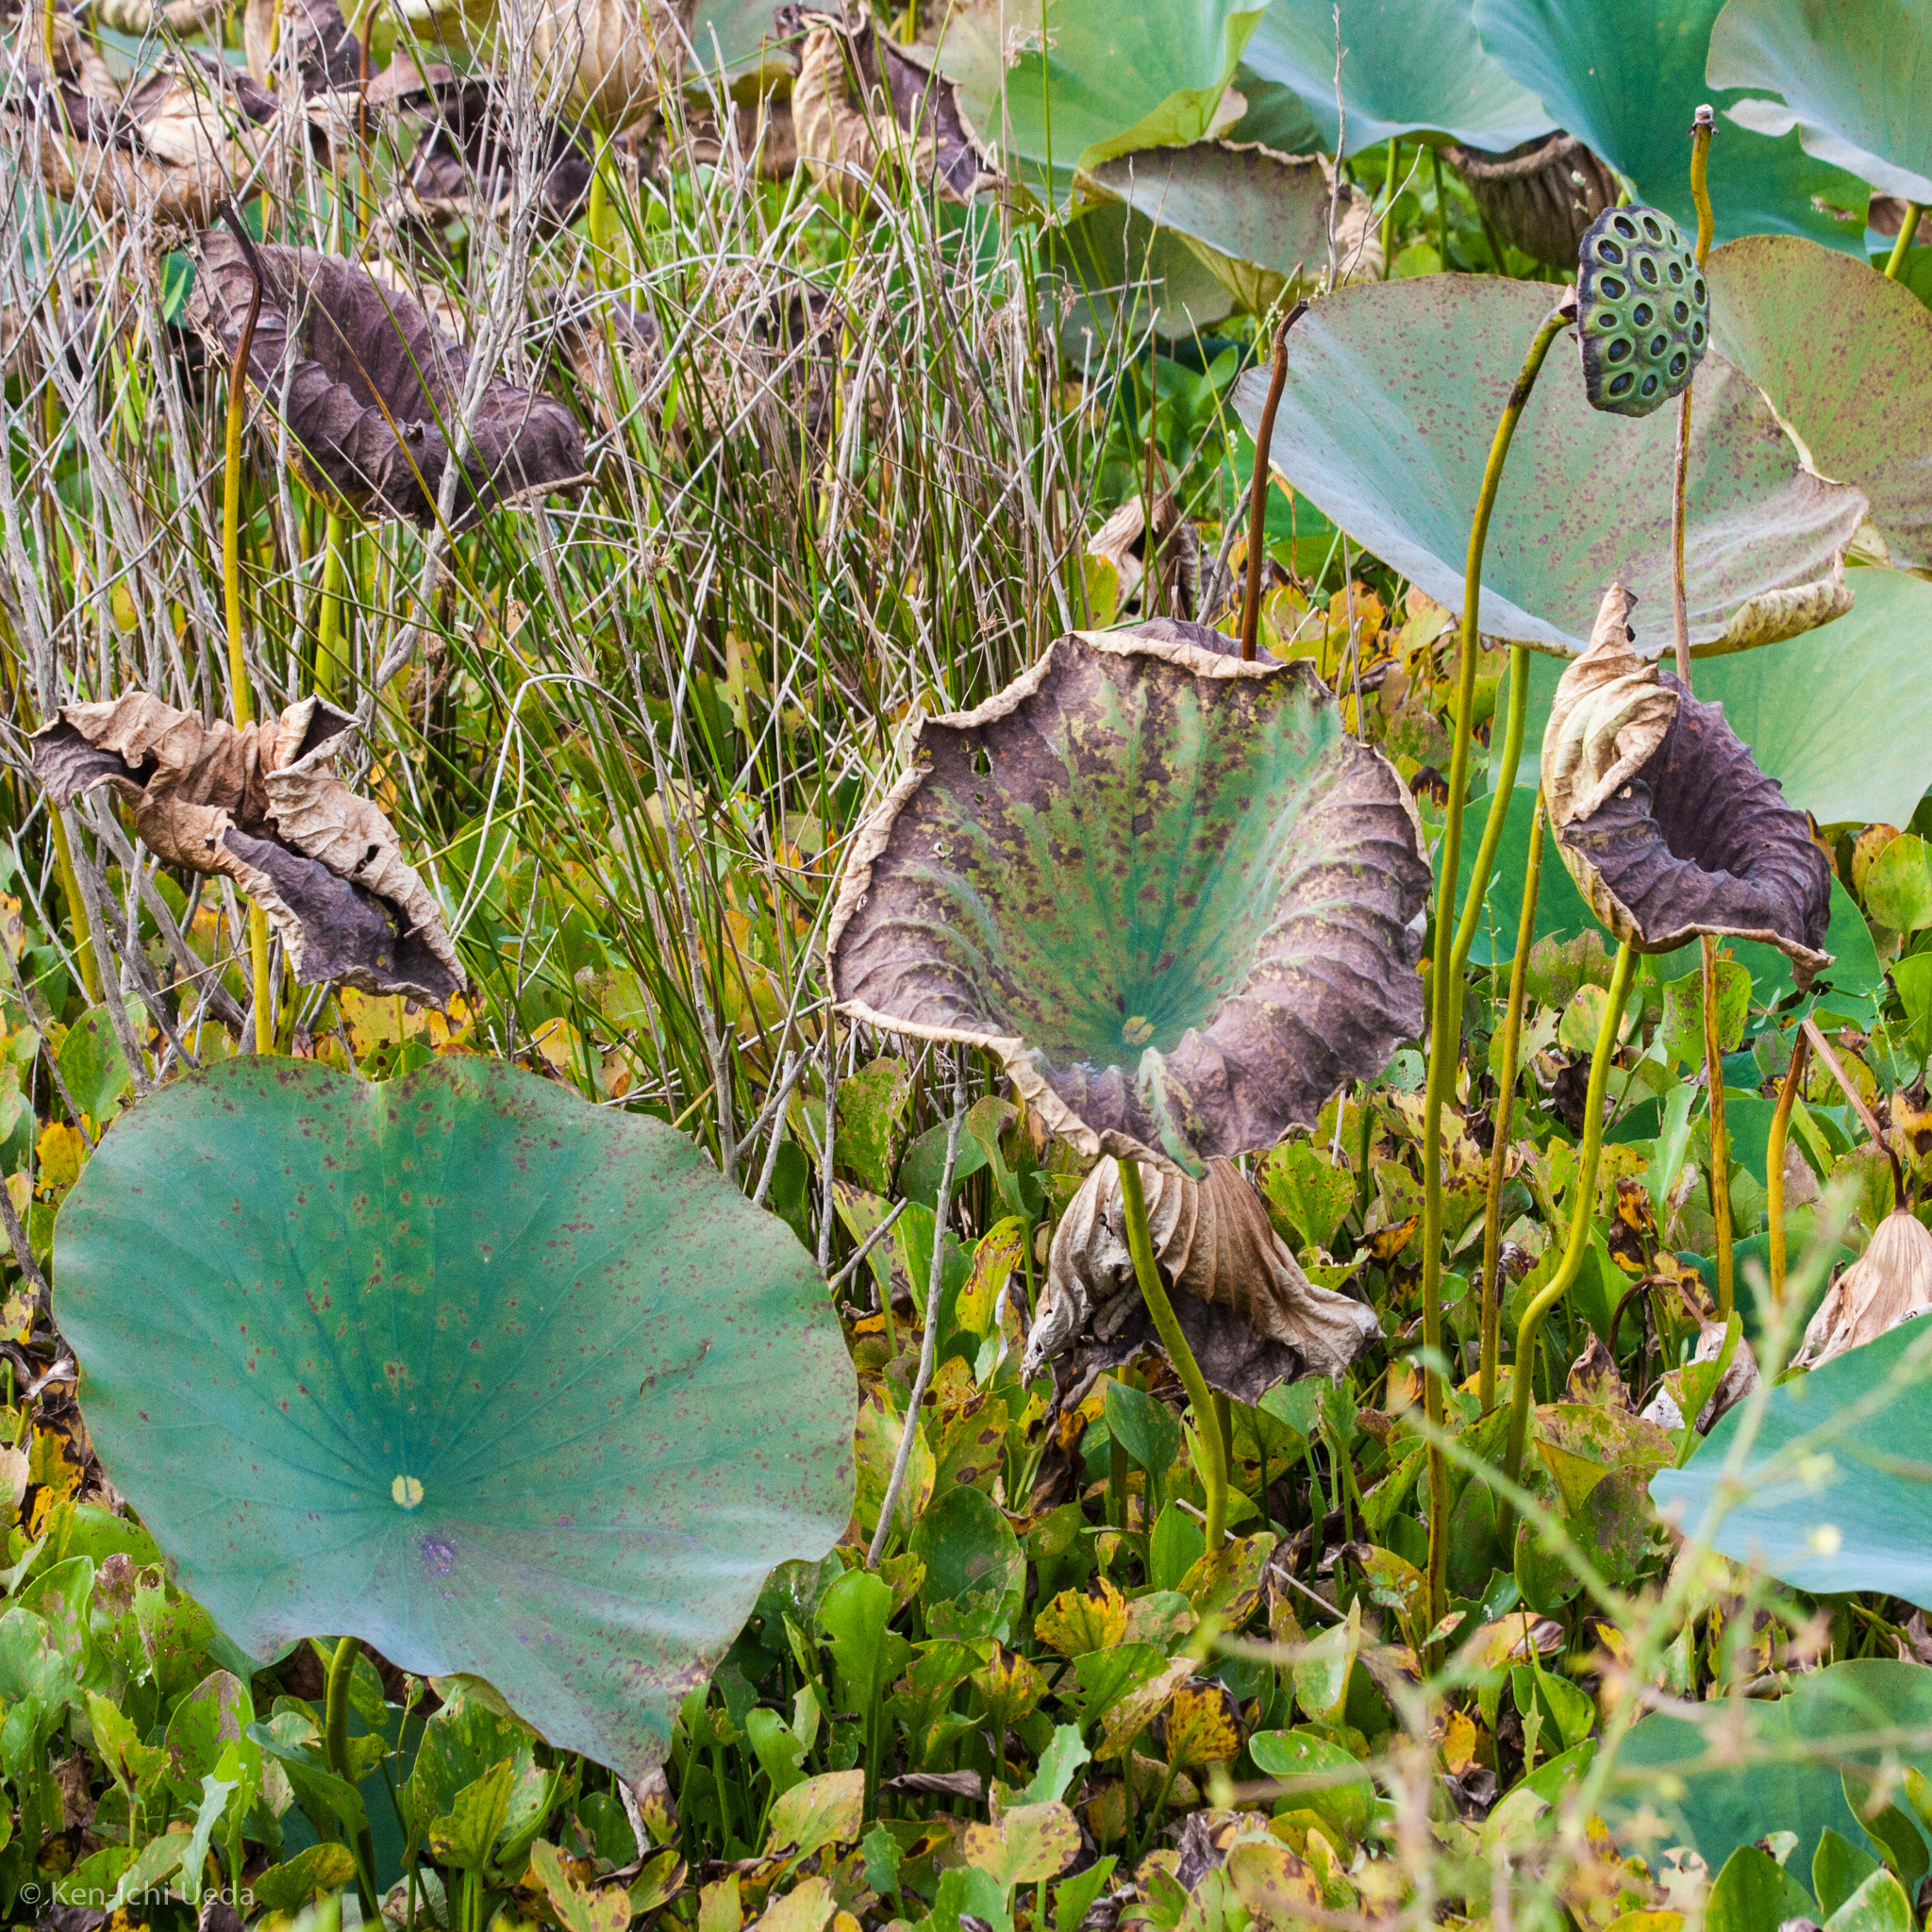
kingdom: Plantae
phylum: Tracheophyta
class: Magnoliopsida
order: Proteales
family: Nelumbonaceae
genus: Nelumbo
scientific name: Nelumbo lutea
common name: American lotus
